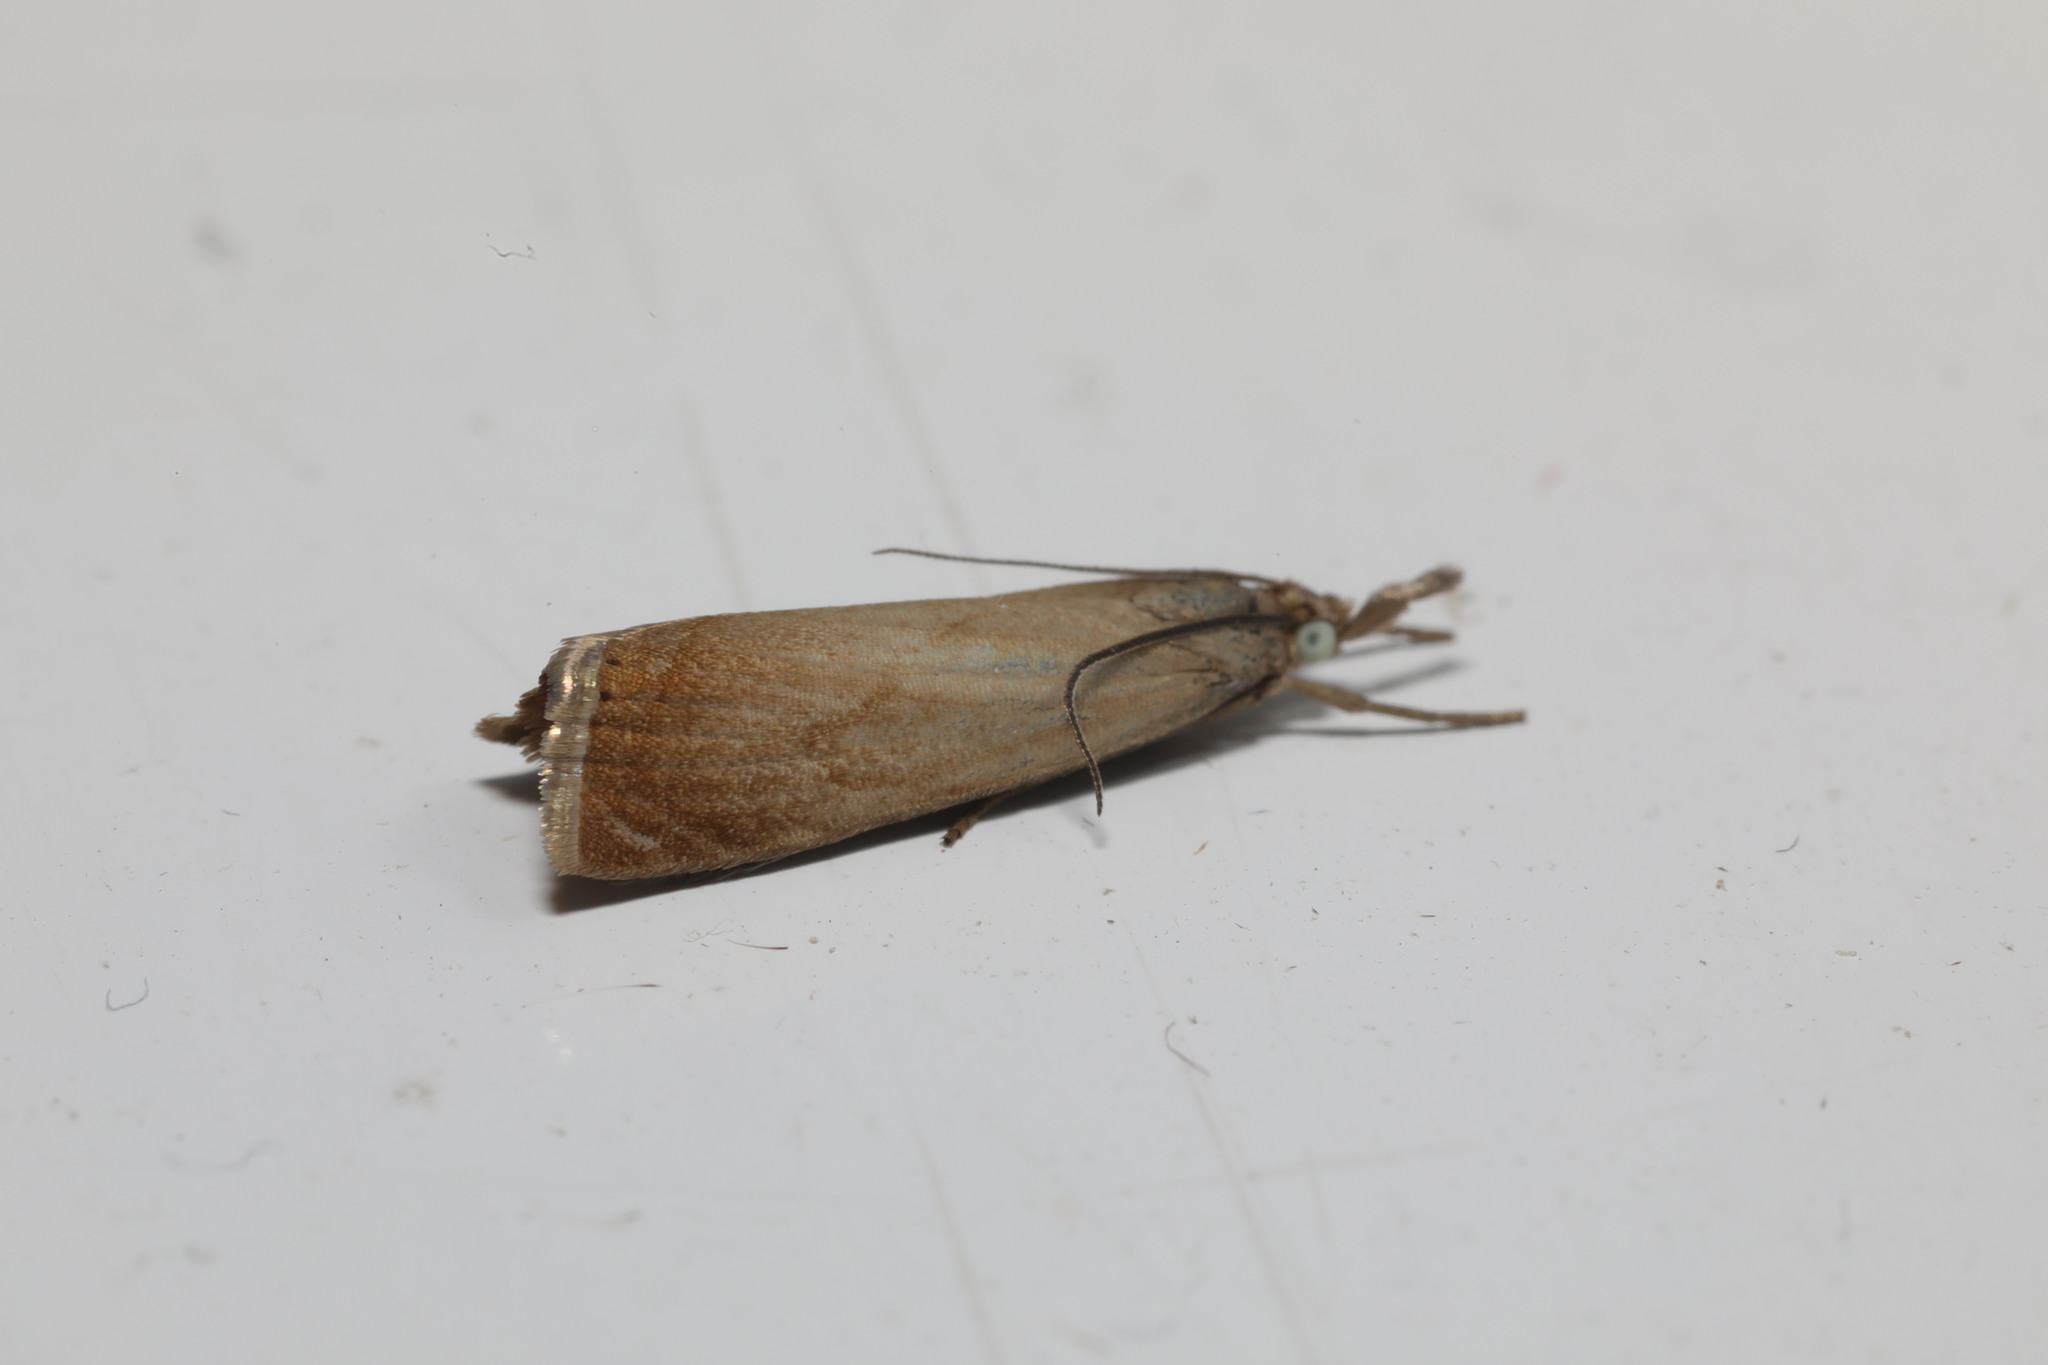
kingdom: Animalia
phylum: Arthropoda
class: Insecta
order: Lepidoptera
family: Crambidae
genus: Chrysoteuchia
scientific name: Chrysoteuchia culmella
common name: Garden grass-veneer
